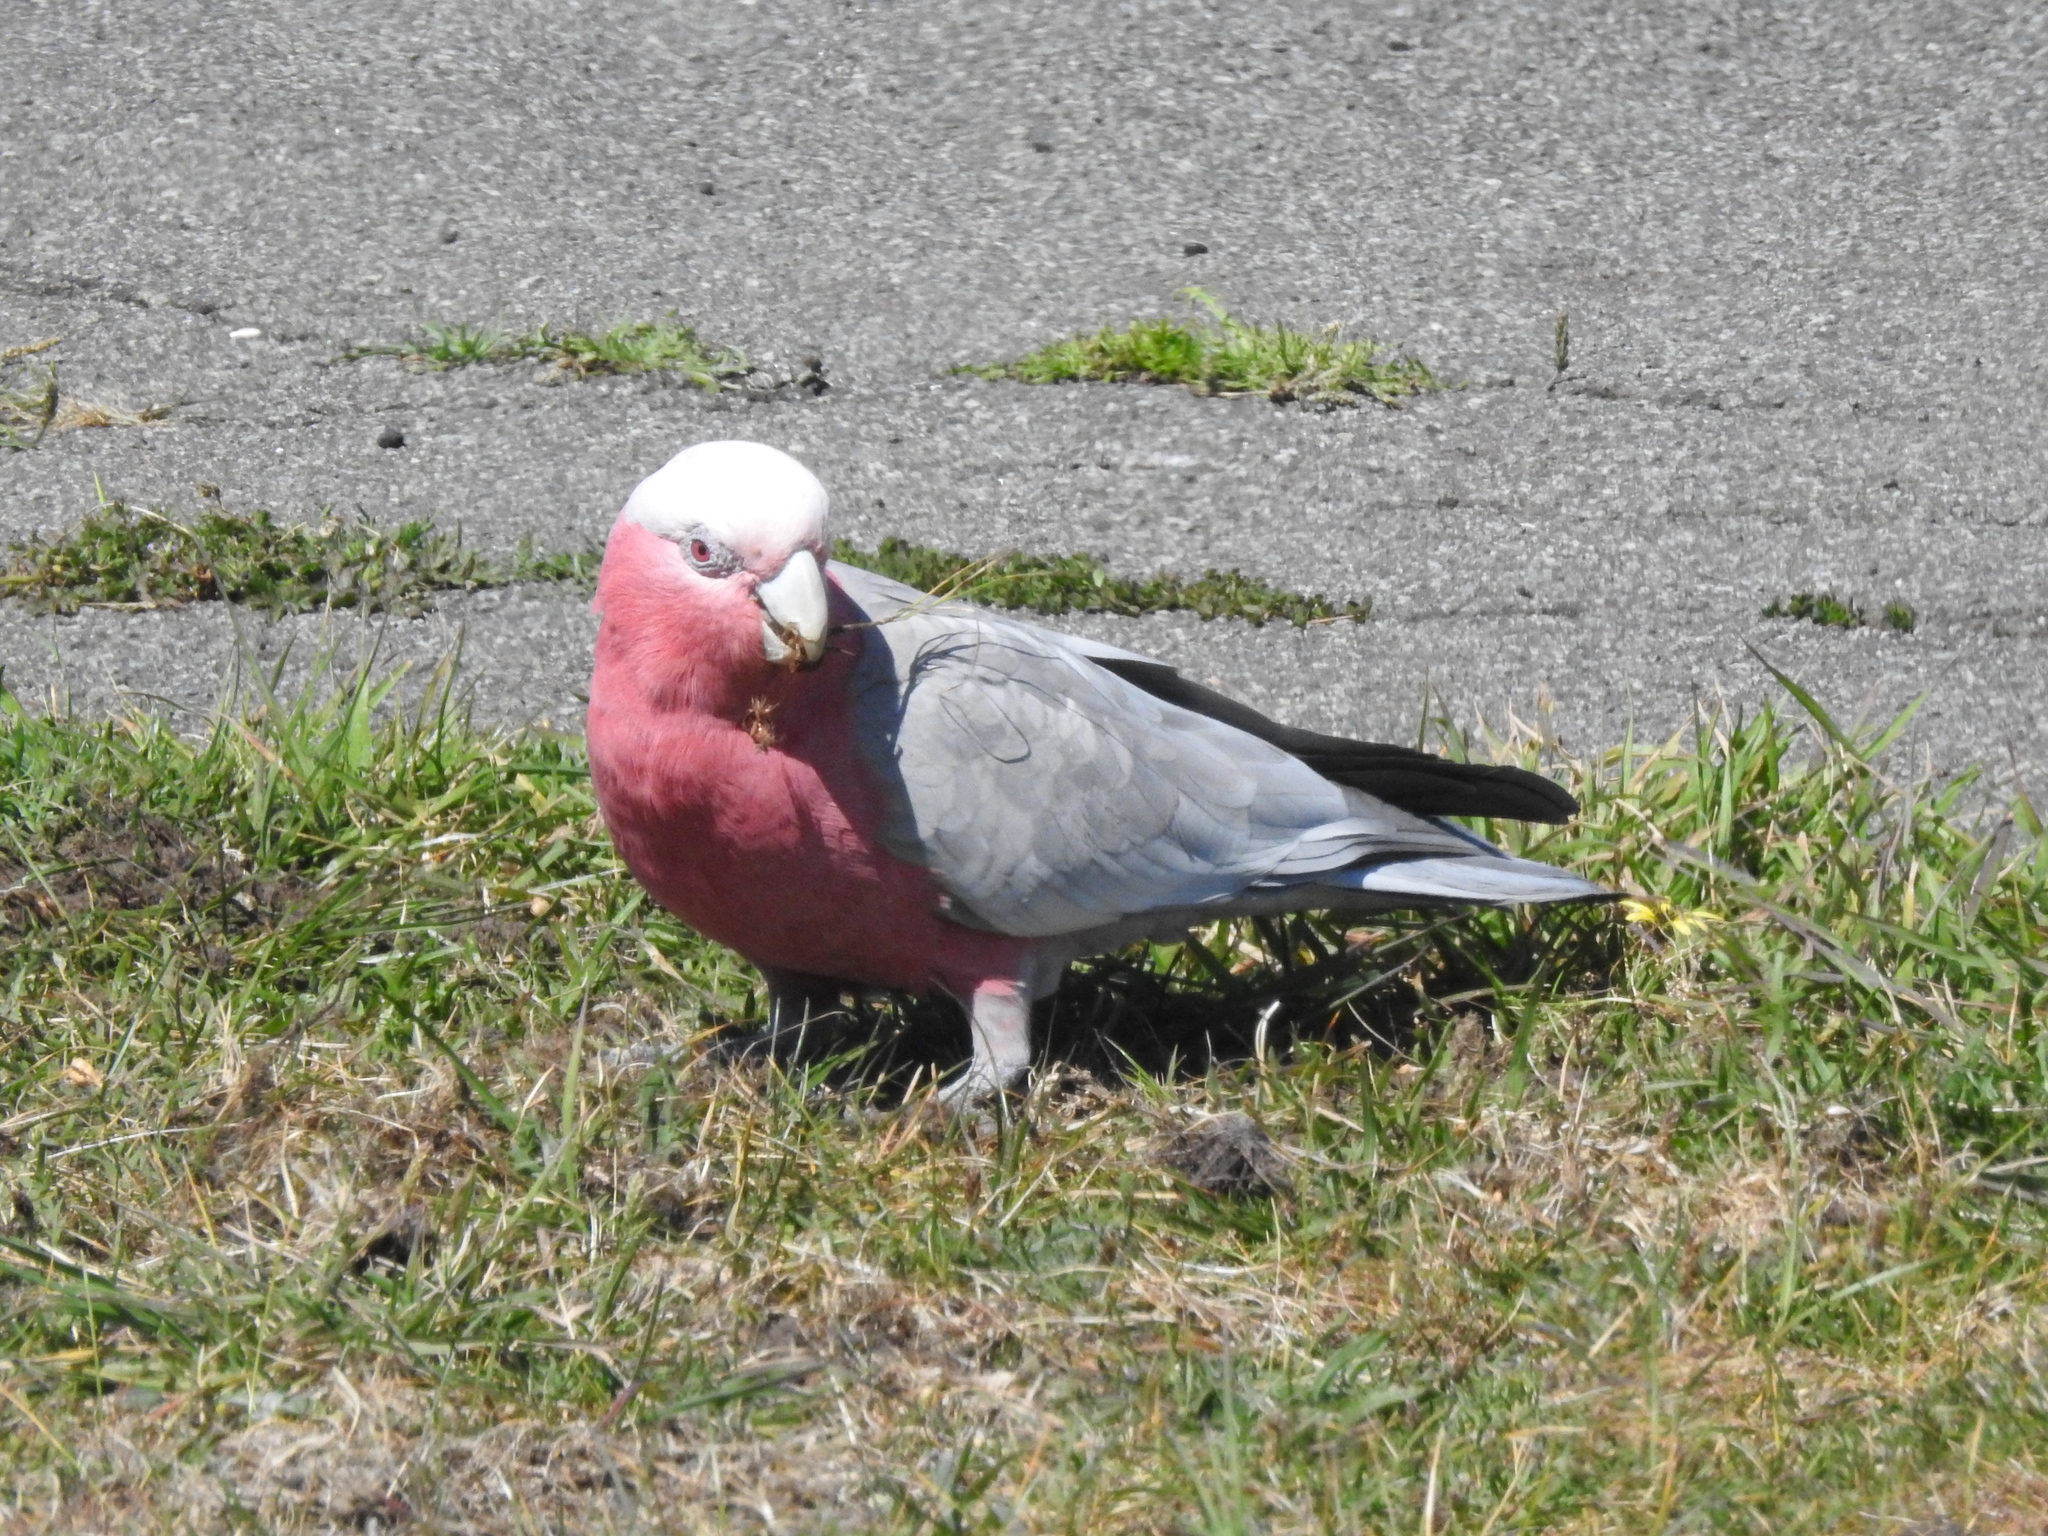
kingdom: Animalia
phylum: Chordata
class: Aves
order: Psittaciformes
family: Psittacidae
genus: Eolophus
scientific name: Eolophus roseicapilla
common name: Galah
